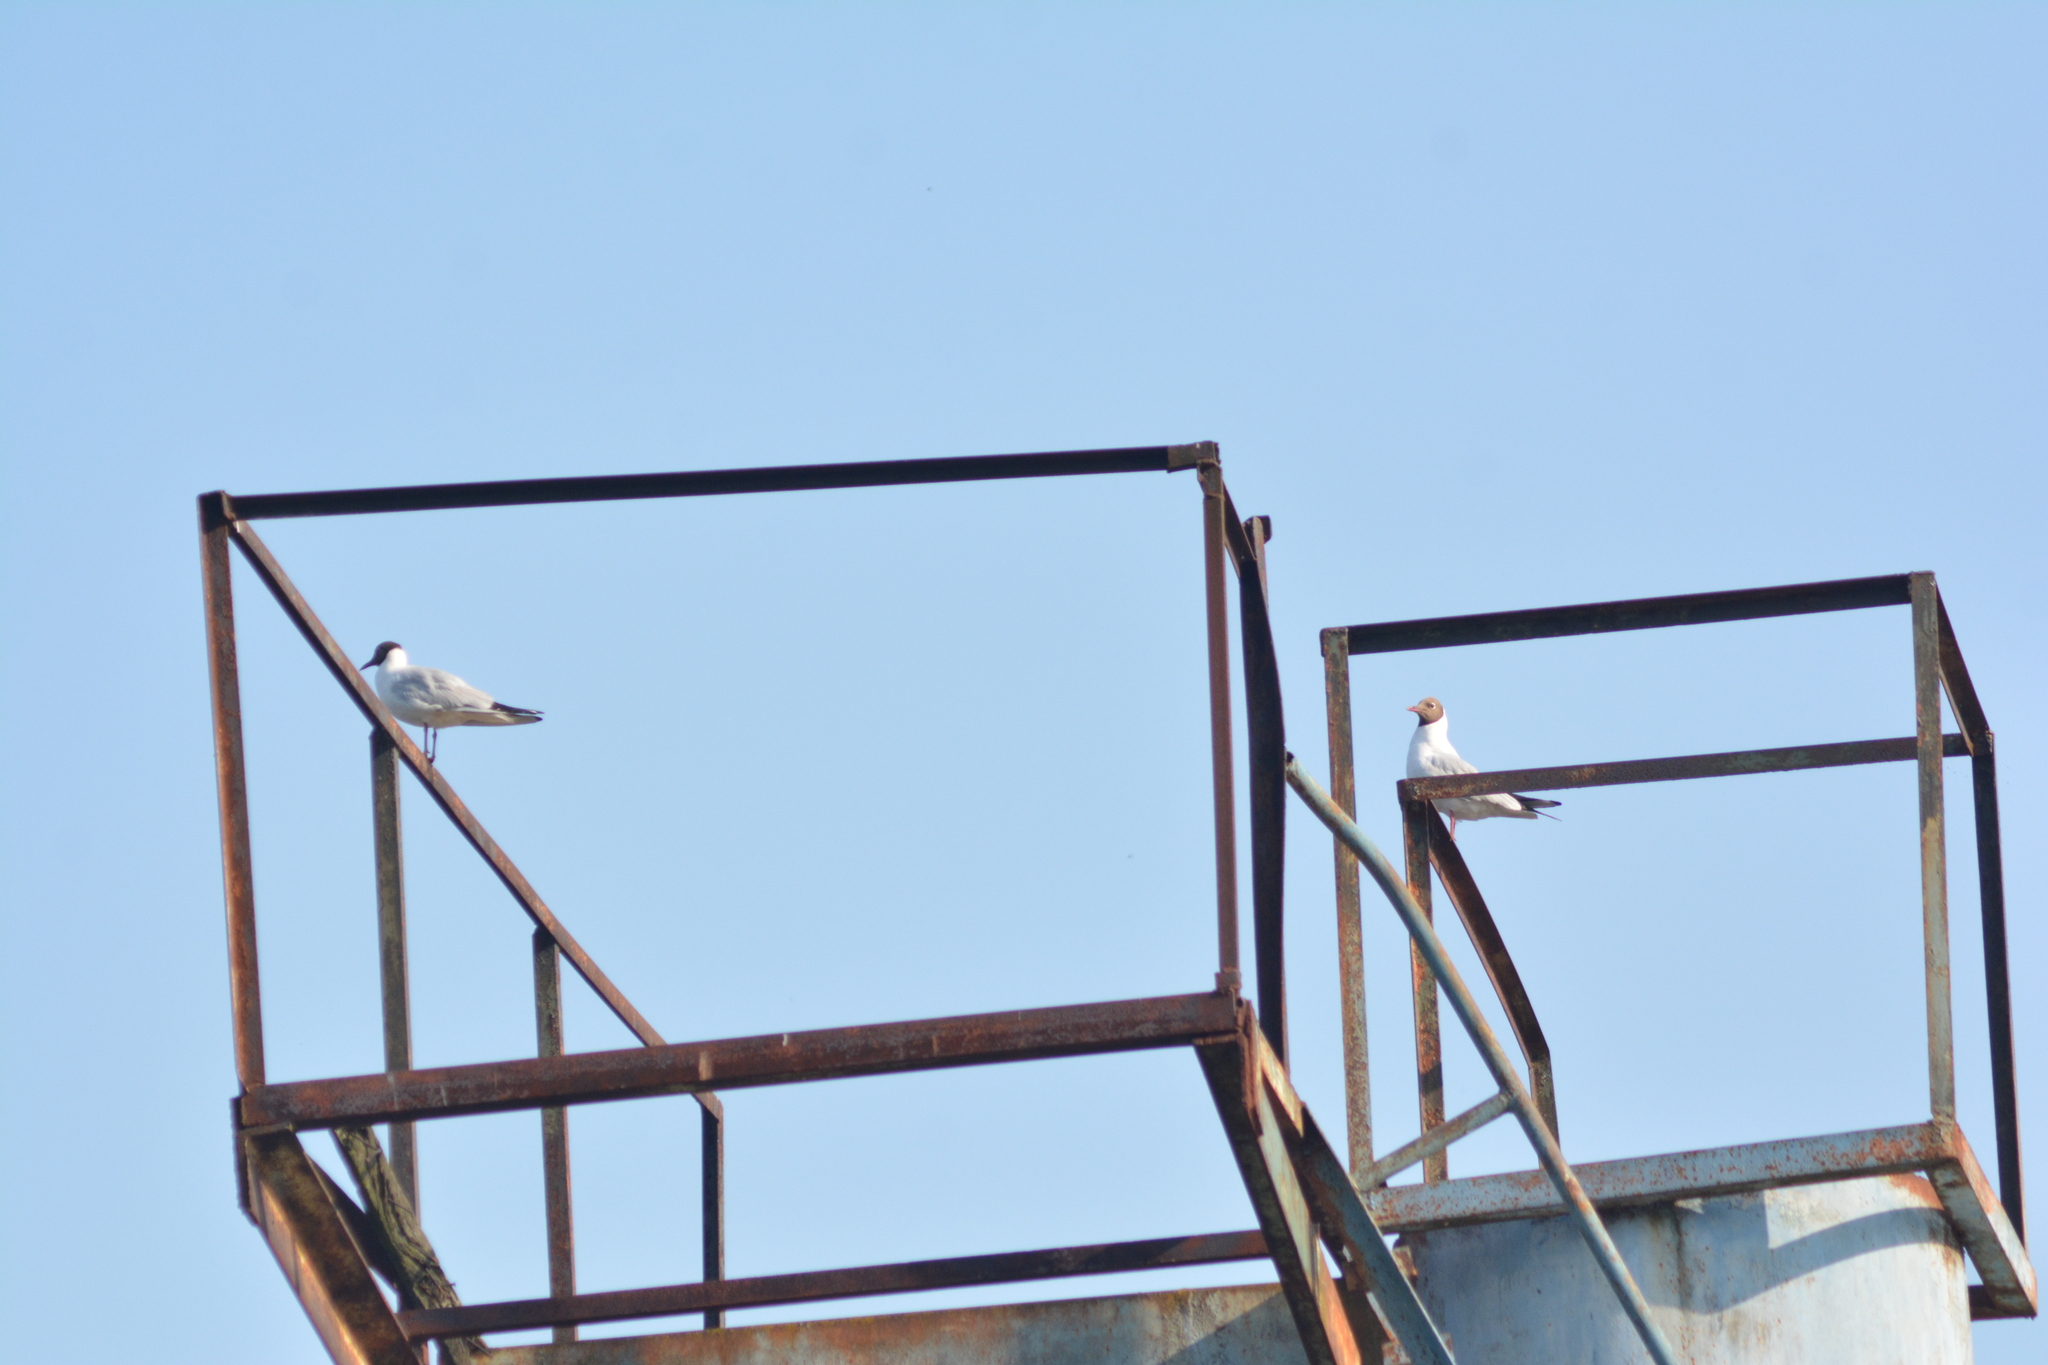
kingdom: Animalia
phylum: Chordata
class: Aves
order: Charadriiformes
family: Laridae
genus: Chroicocephalus
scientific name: Chroicocephalus ridibundus
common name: Black-headed gull
